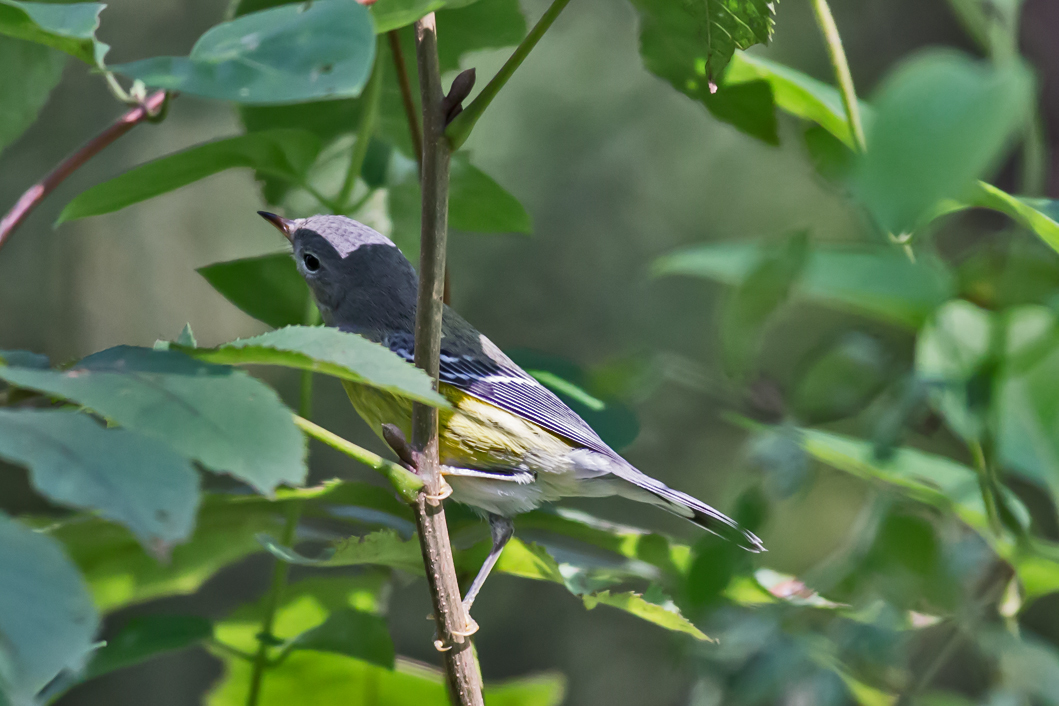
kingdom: Animalia
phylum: Chordata
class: Aves
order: Passeriformes
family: Parulidae
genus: Setophaga
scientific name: Setophaga magnolia
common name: Magnolia warbler
